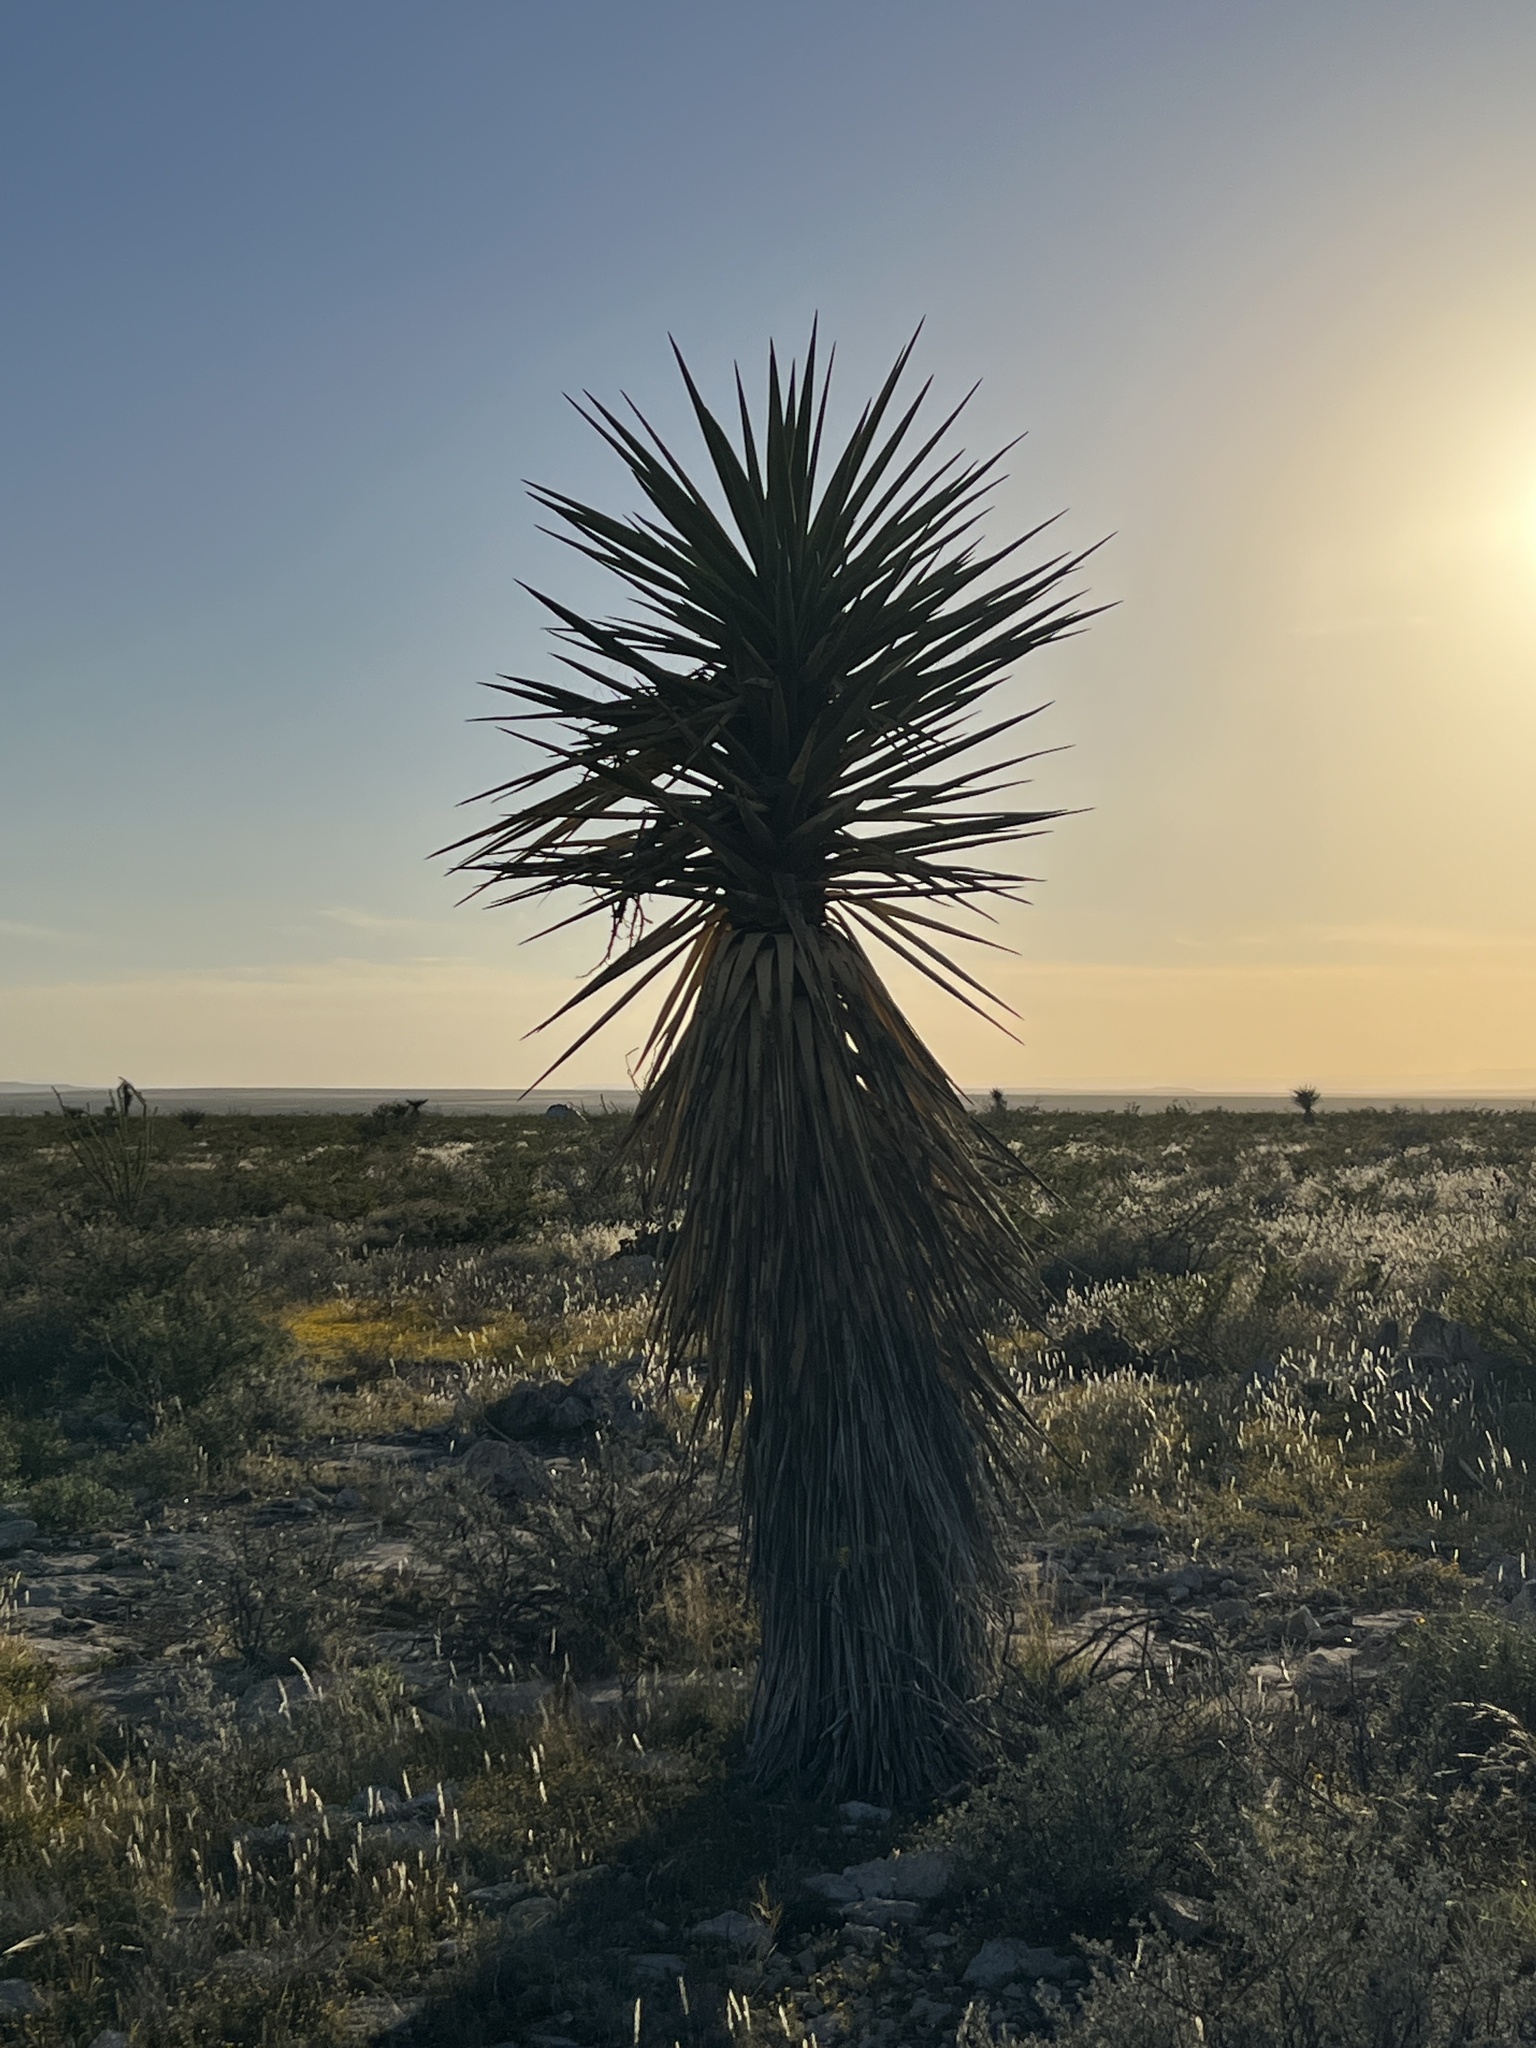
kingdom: Plantae
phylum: Tracheophyta
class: Liliopsida
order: Asparagales
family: Asparagaceae
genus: Yucca
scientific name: Yucca treculiana
